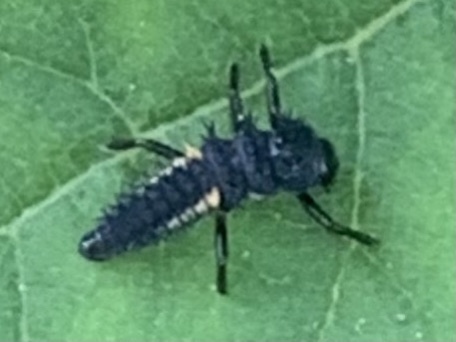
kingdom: Animalia
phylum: Arthropoda
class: Insecta
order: Coleoptera
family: Coccinellidae
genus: Harmonia
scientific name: Harmonia axyridis
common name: Harlequin ladybird
